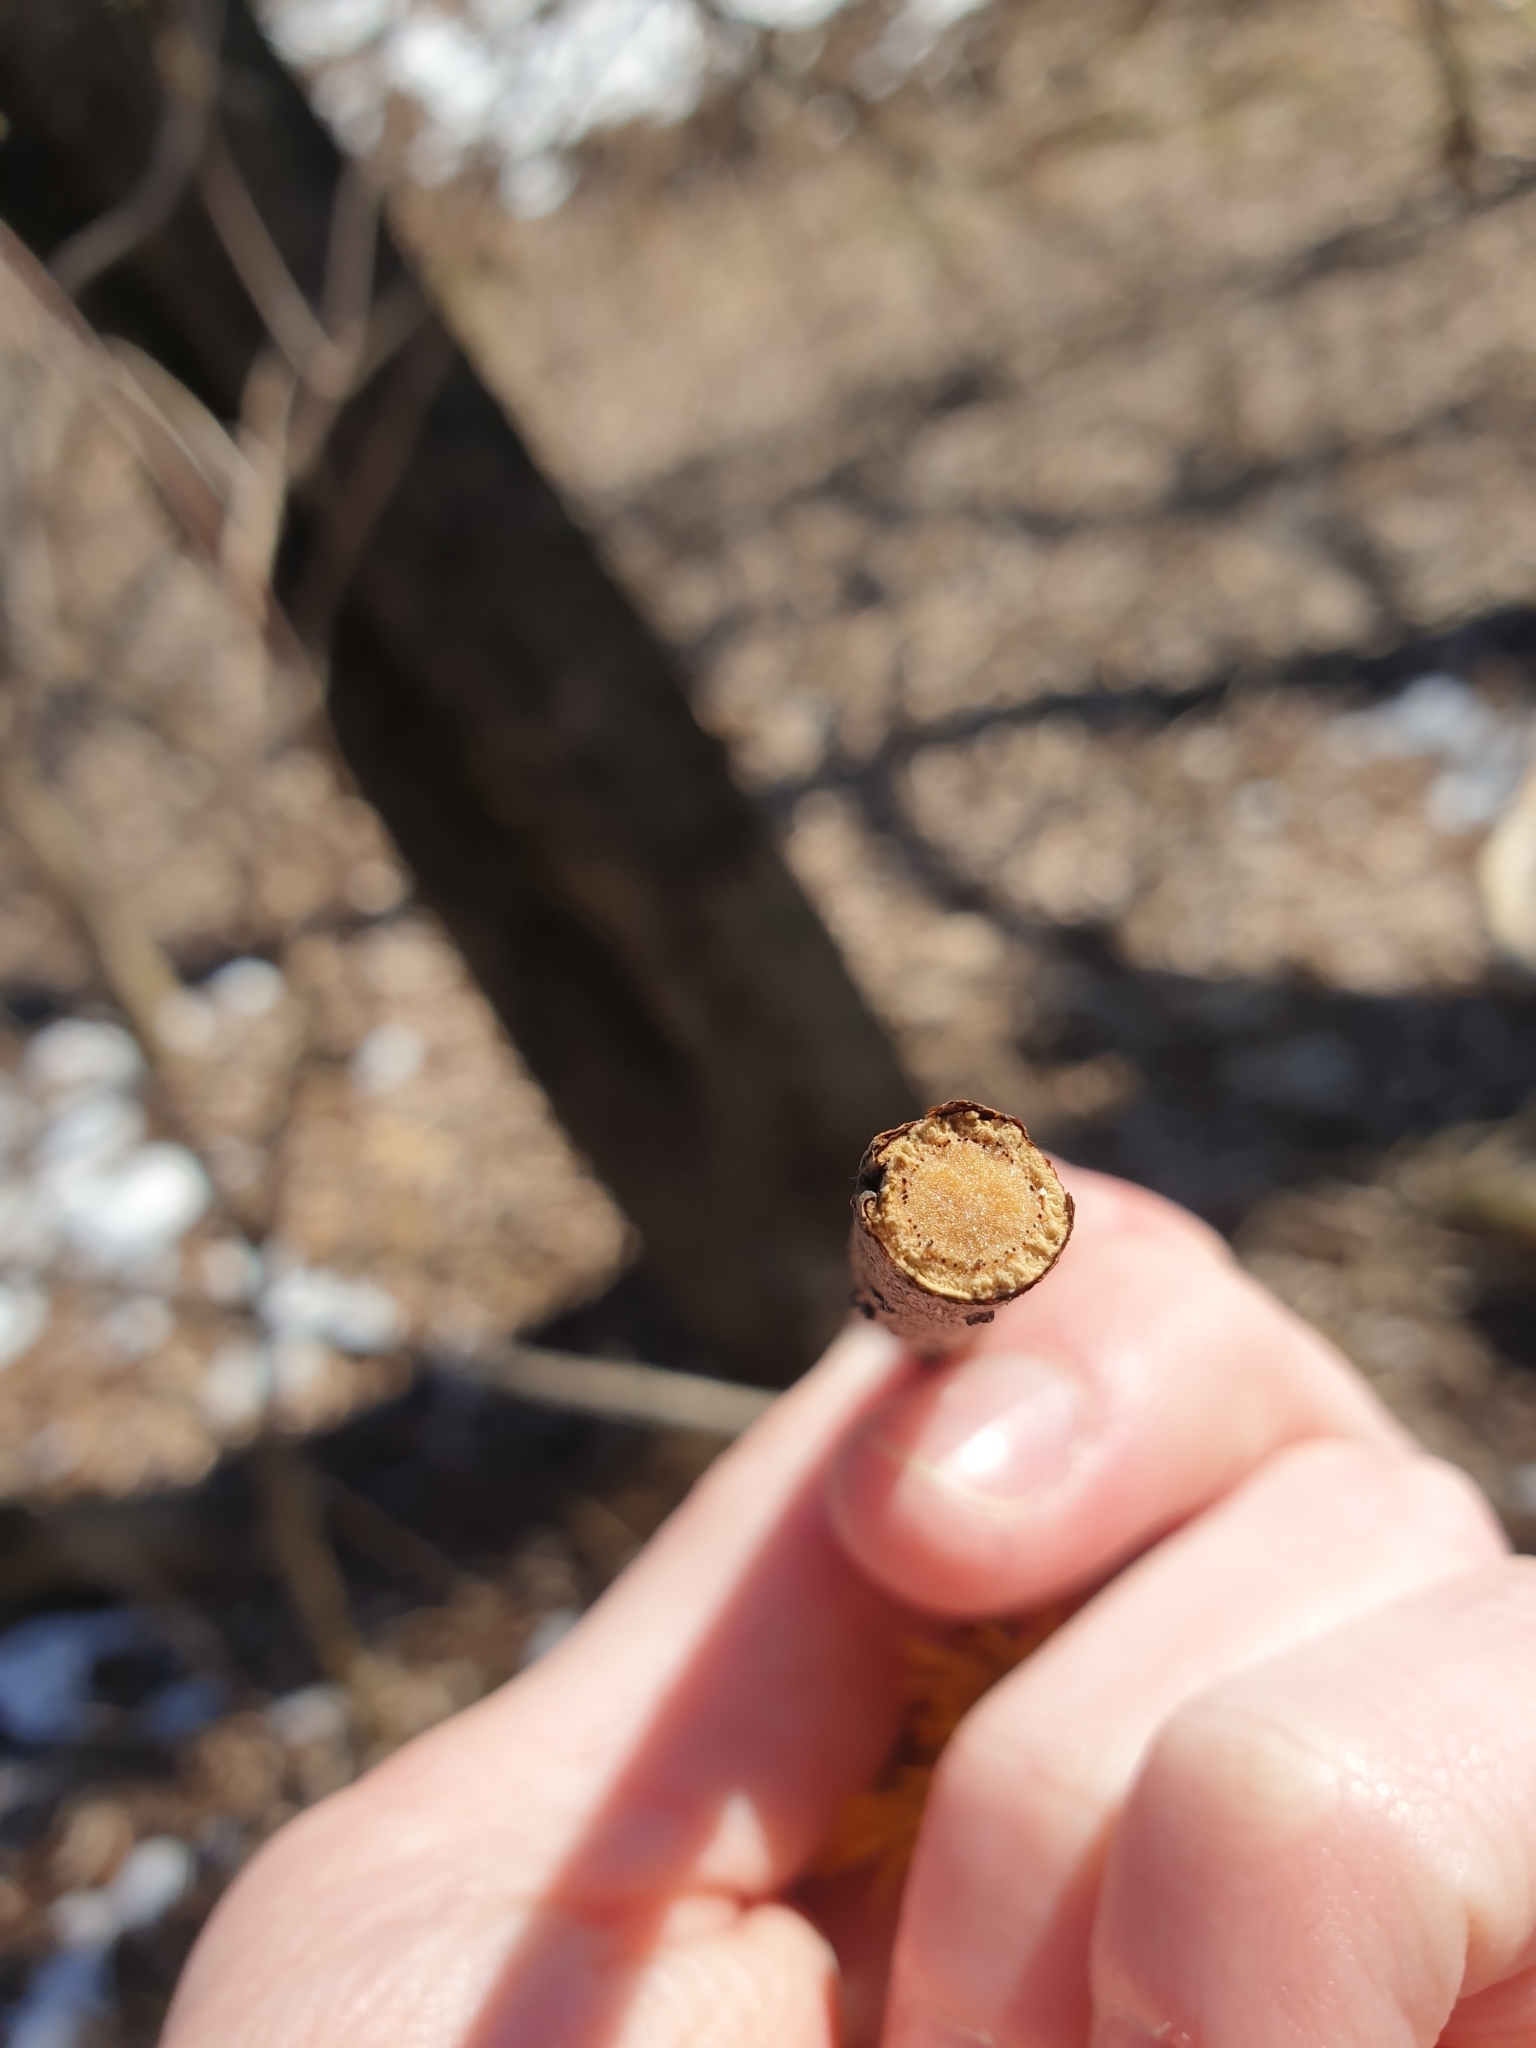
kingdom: Plantae
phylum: Tracheophyta
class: Magnoliopsida
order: Dipsacales
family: Viburnaceae
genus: Sambucus
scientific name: Sambucus racemosa
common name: Red-berried elder
